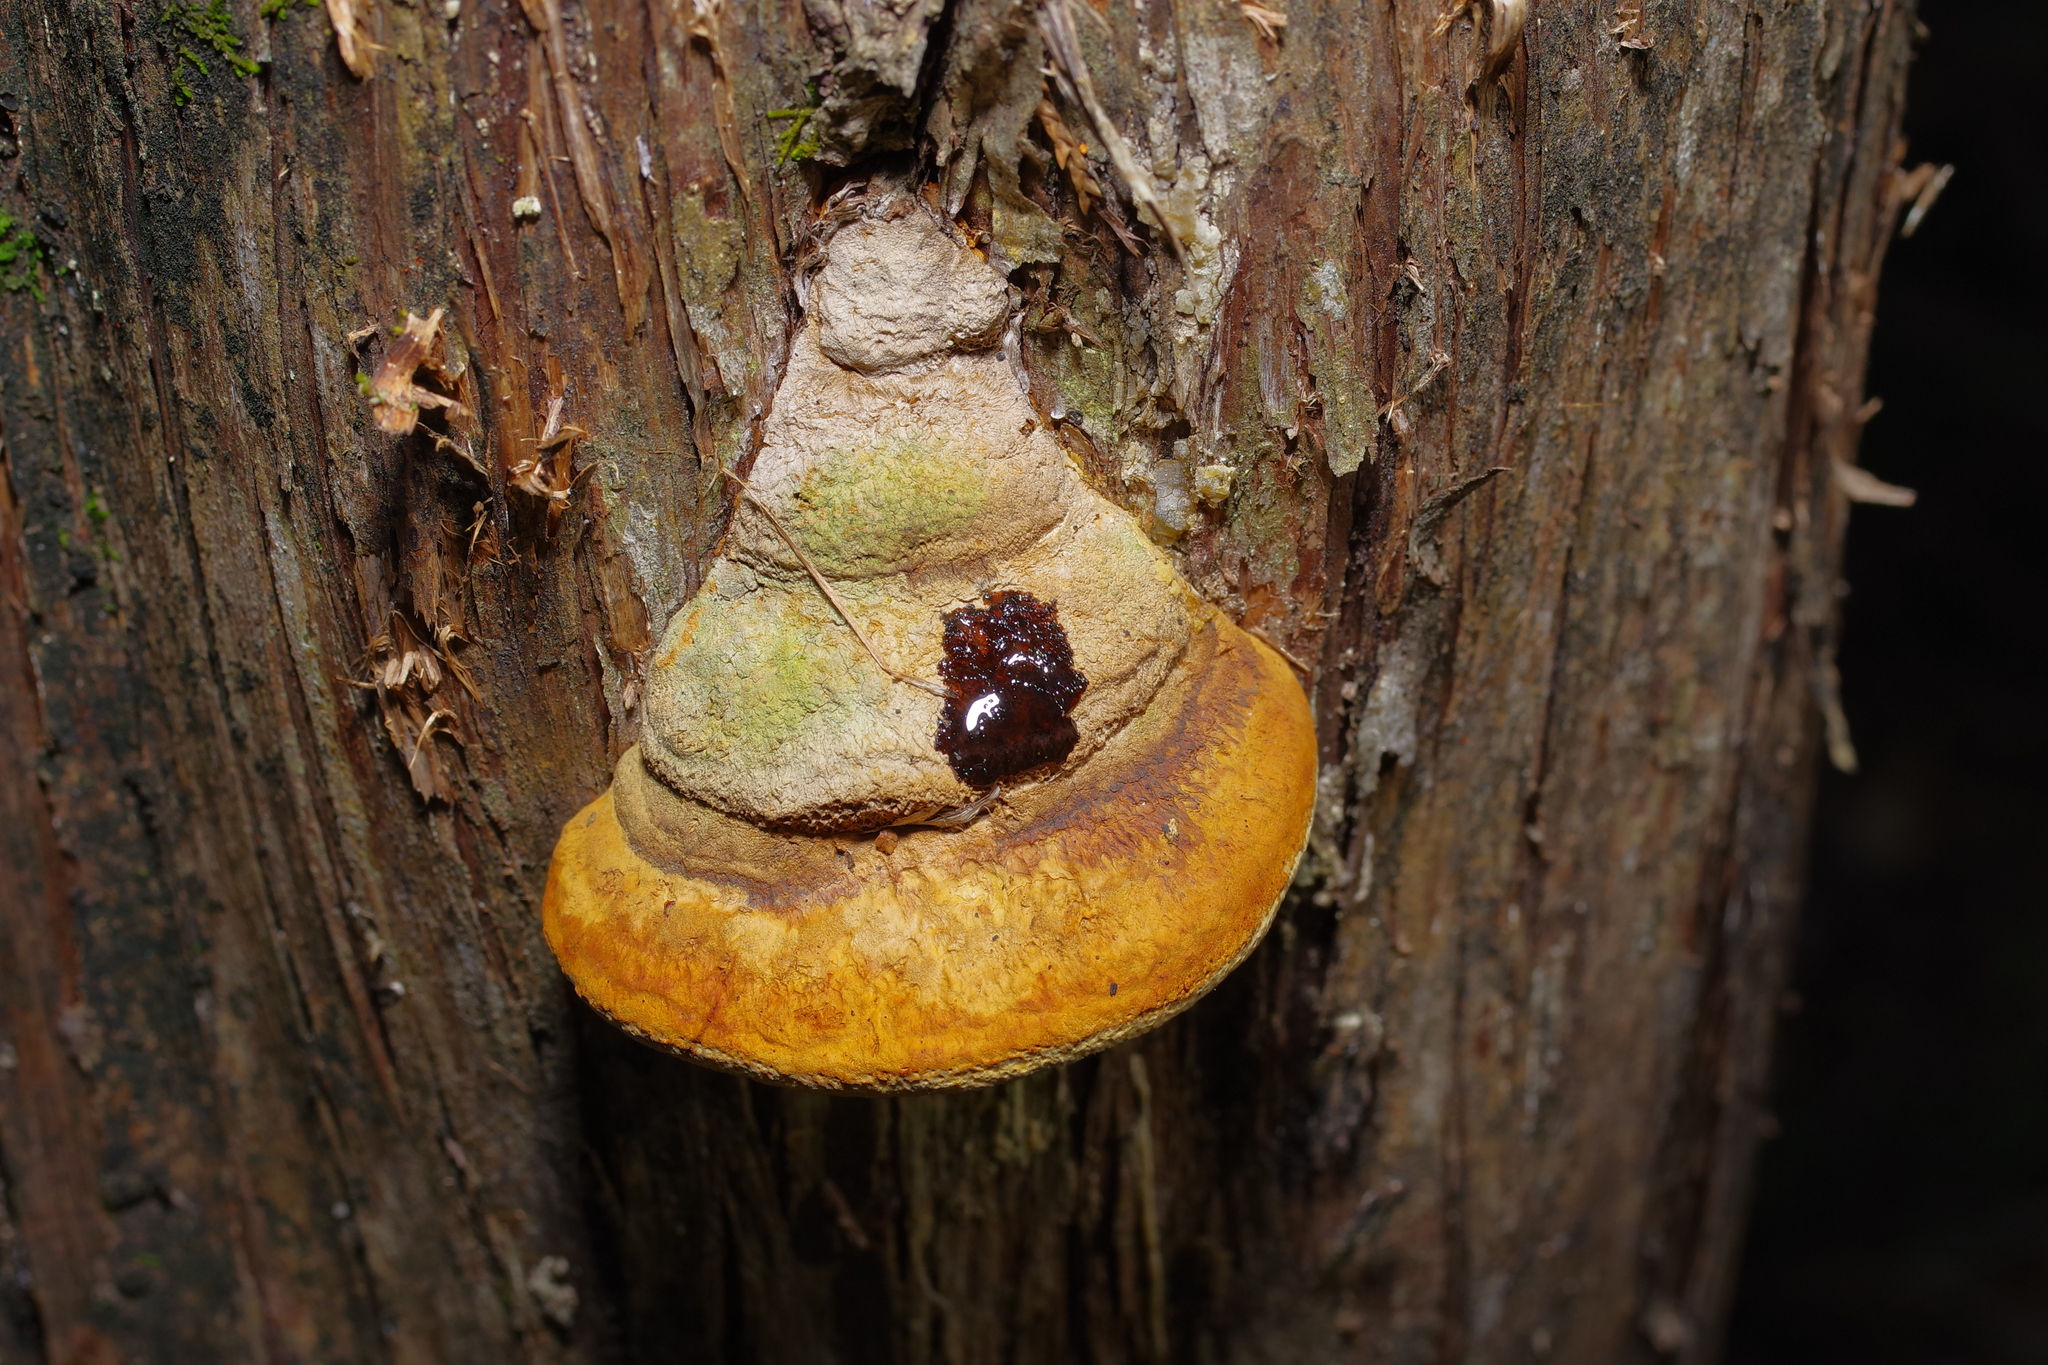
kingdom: Fungi
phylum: Basidiomycota
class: Agaricomycetes
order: Polyporales
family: Polyporaceae
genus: Pyrofomes
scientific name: Pyrofomes juniperinus
